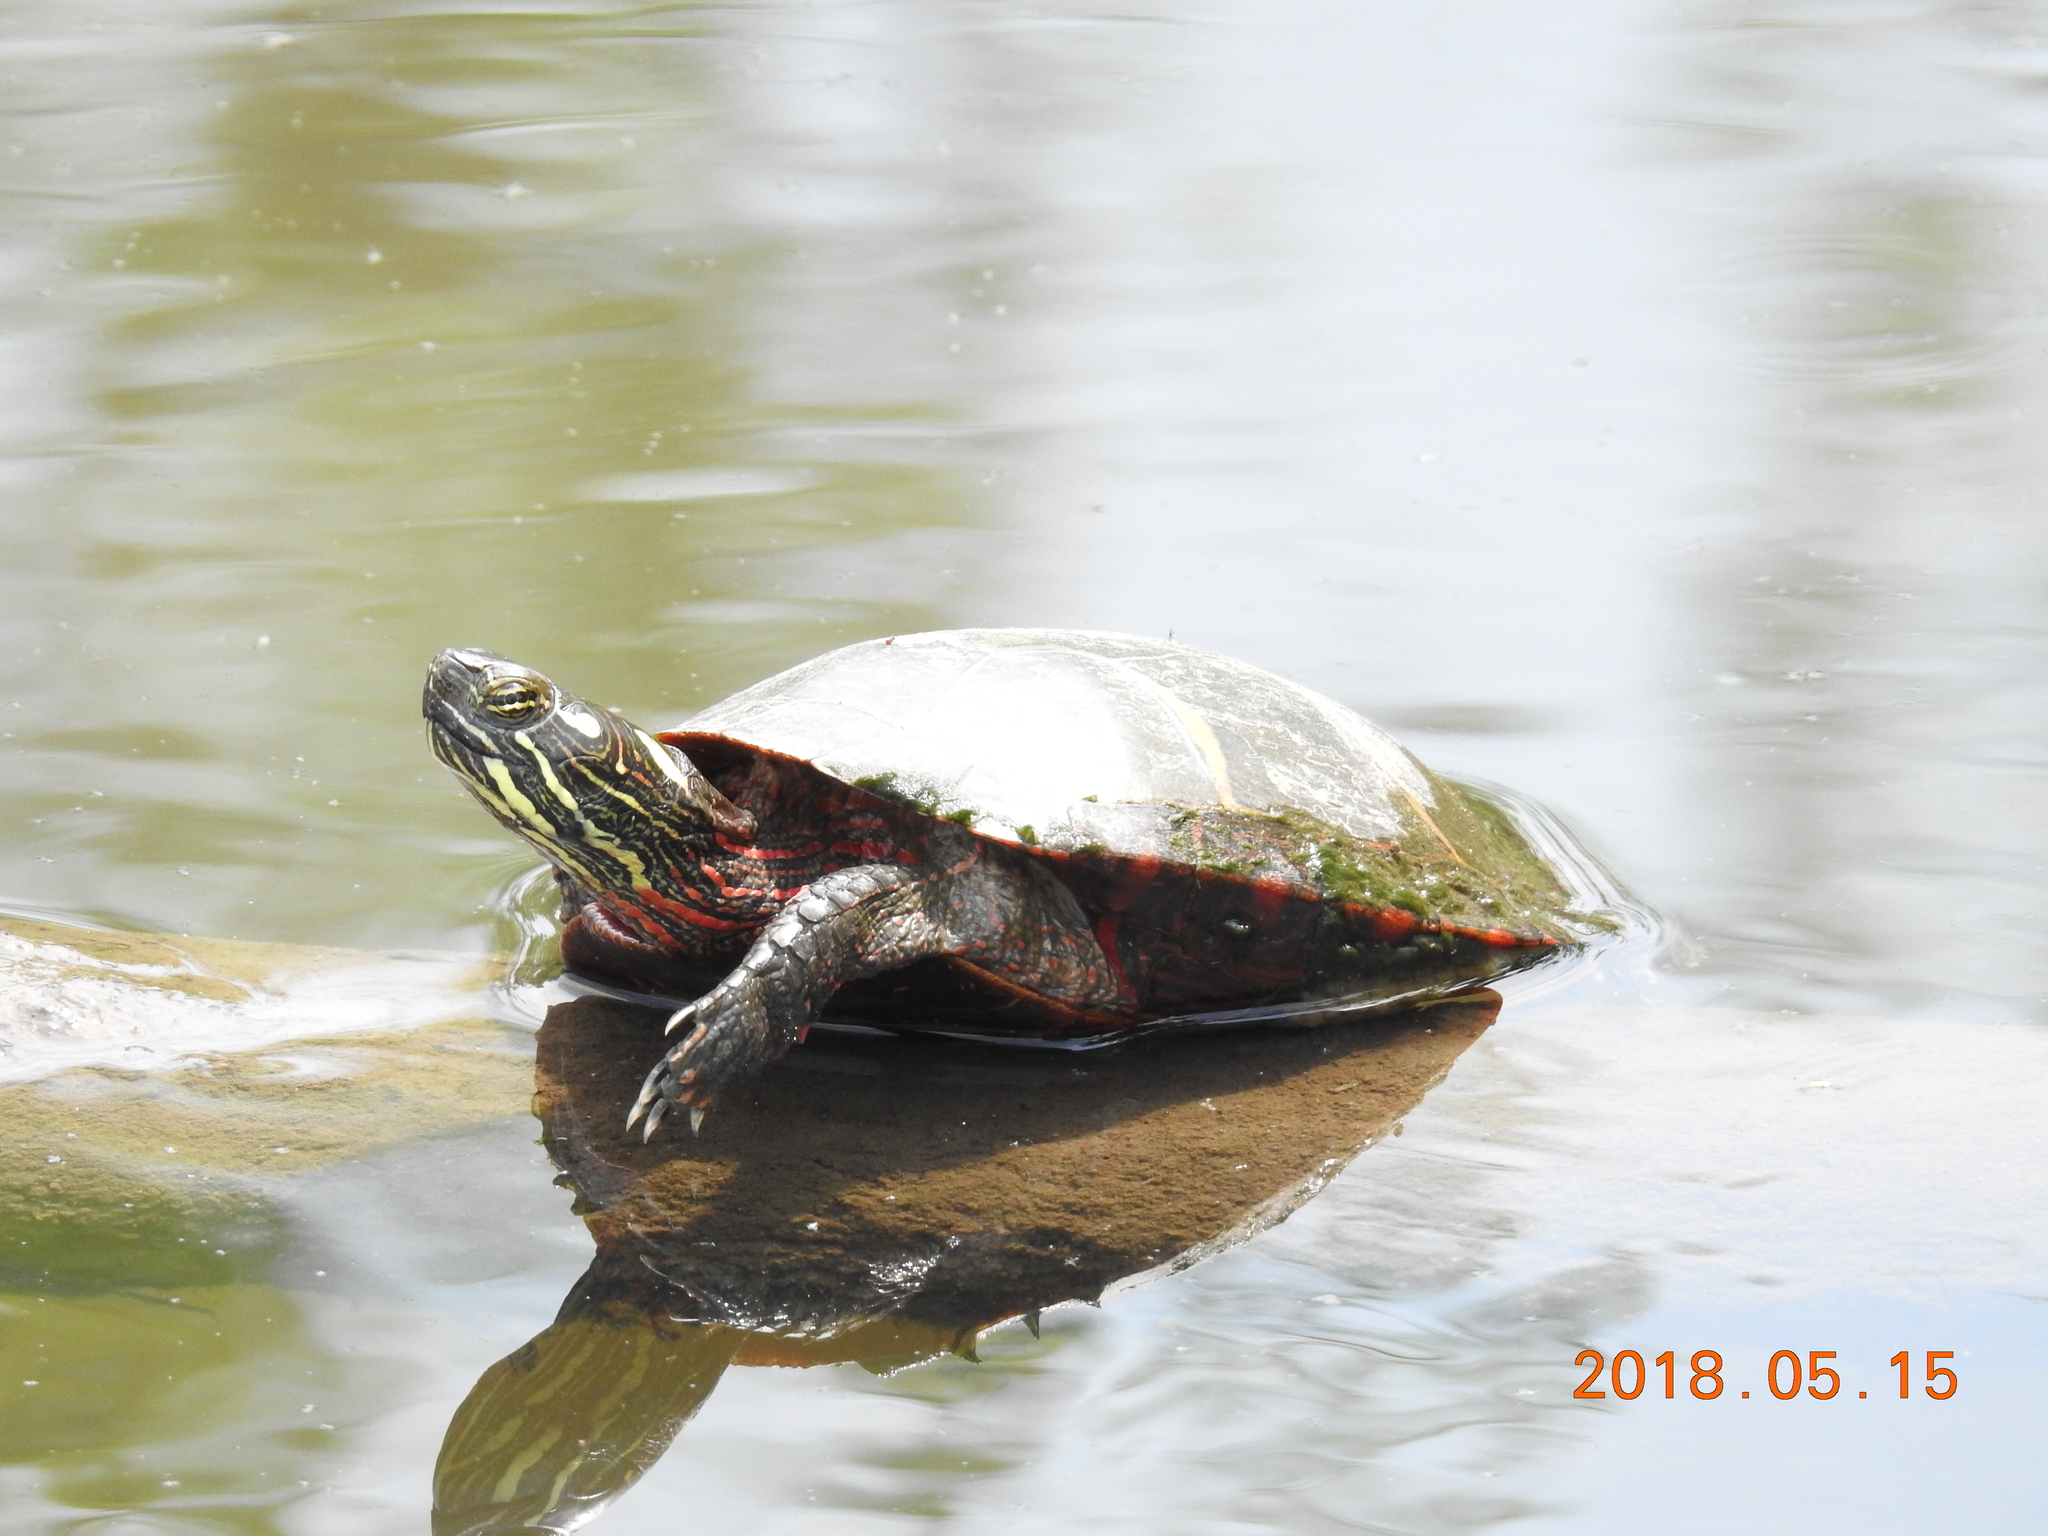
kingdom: Animalia
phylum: Chordata
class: Testudines
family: Emydidae
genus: Chrysemys
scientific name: Chrysemys picta
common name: Painted turtle
